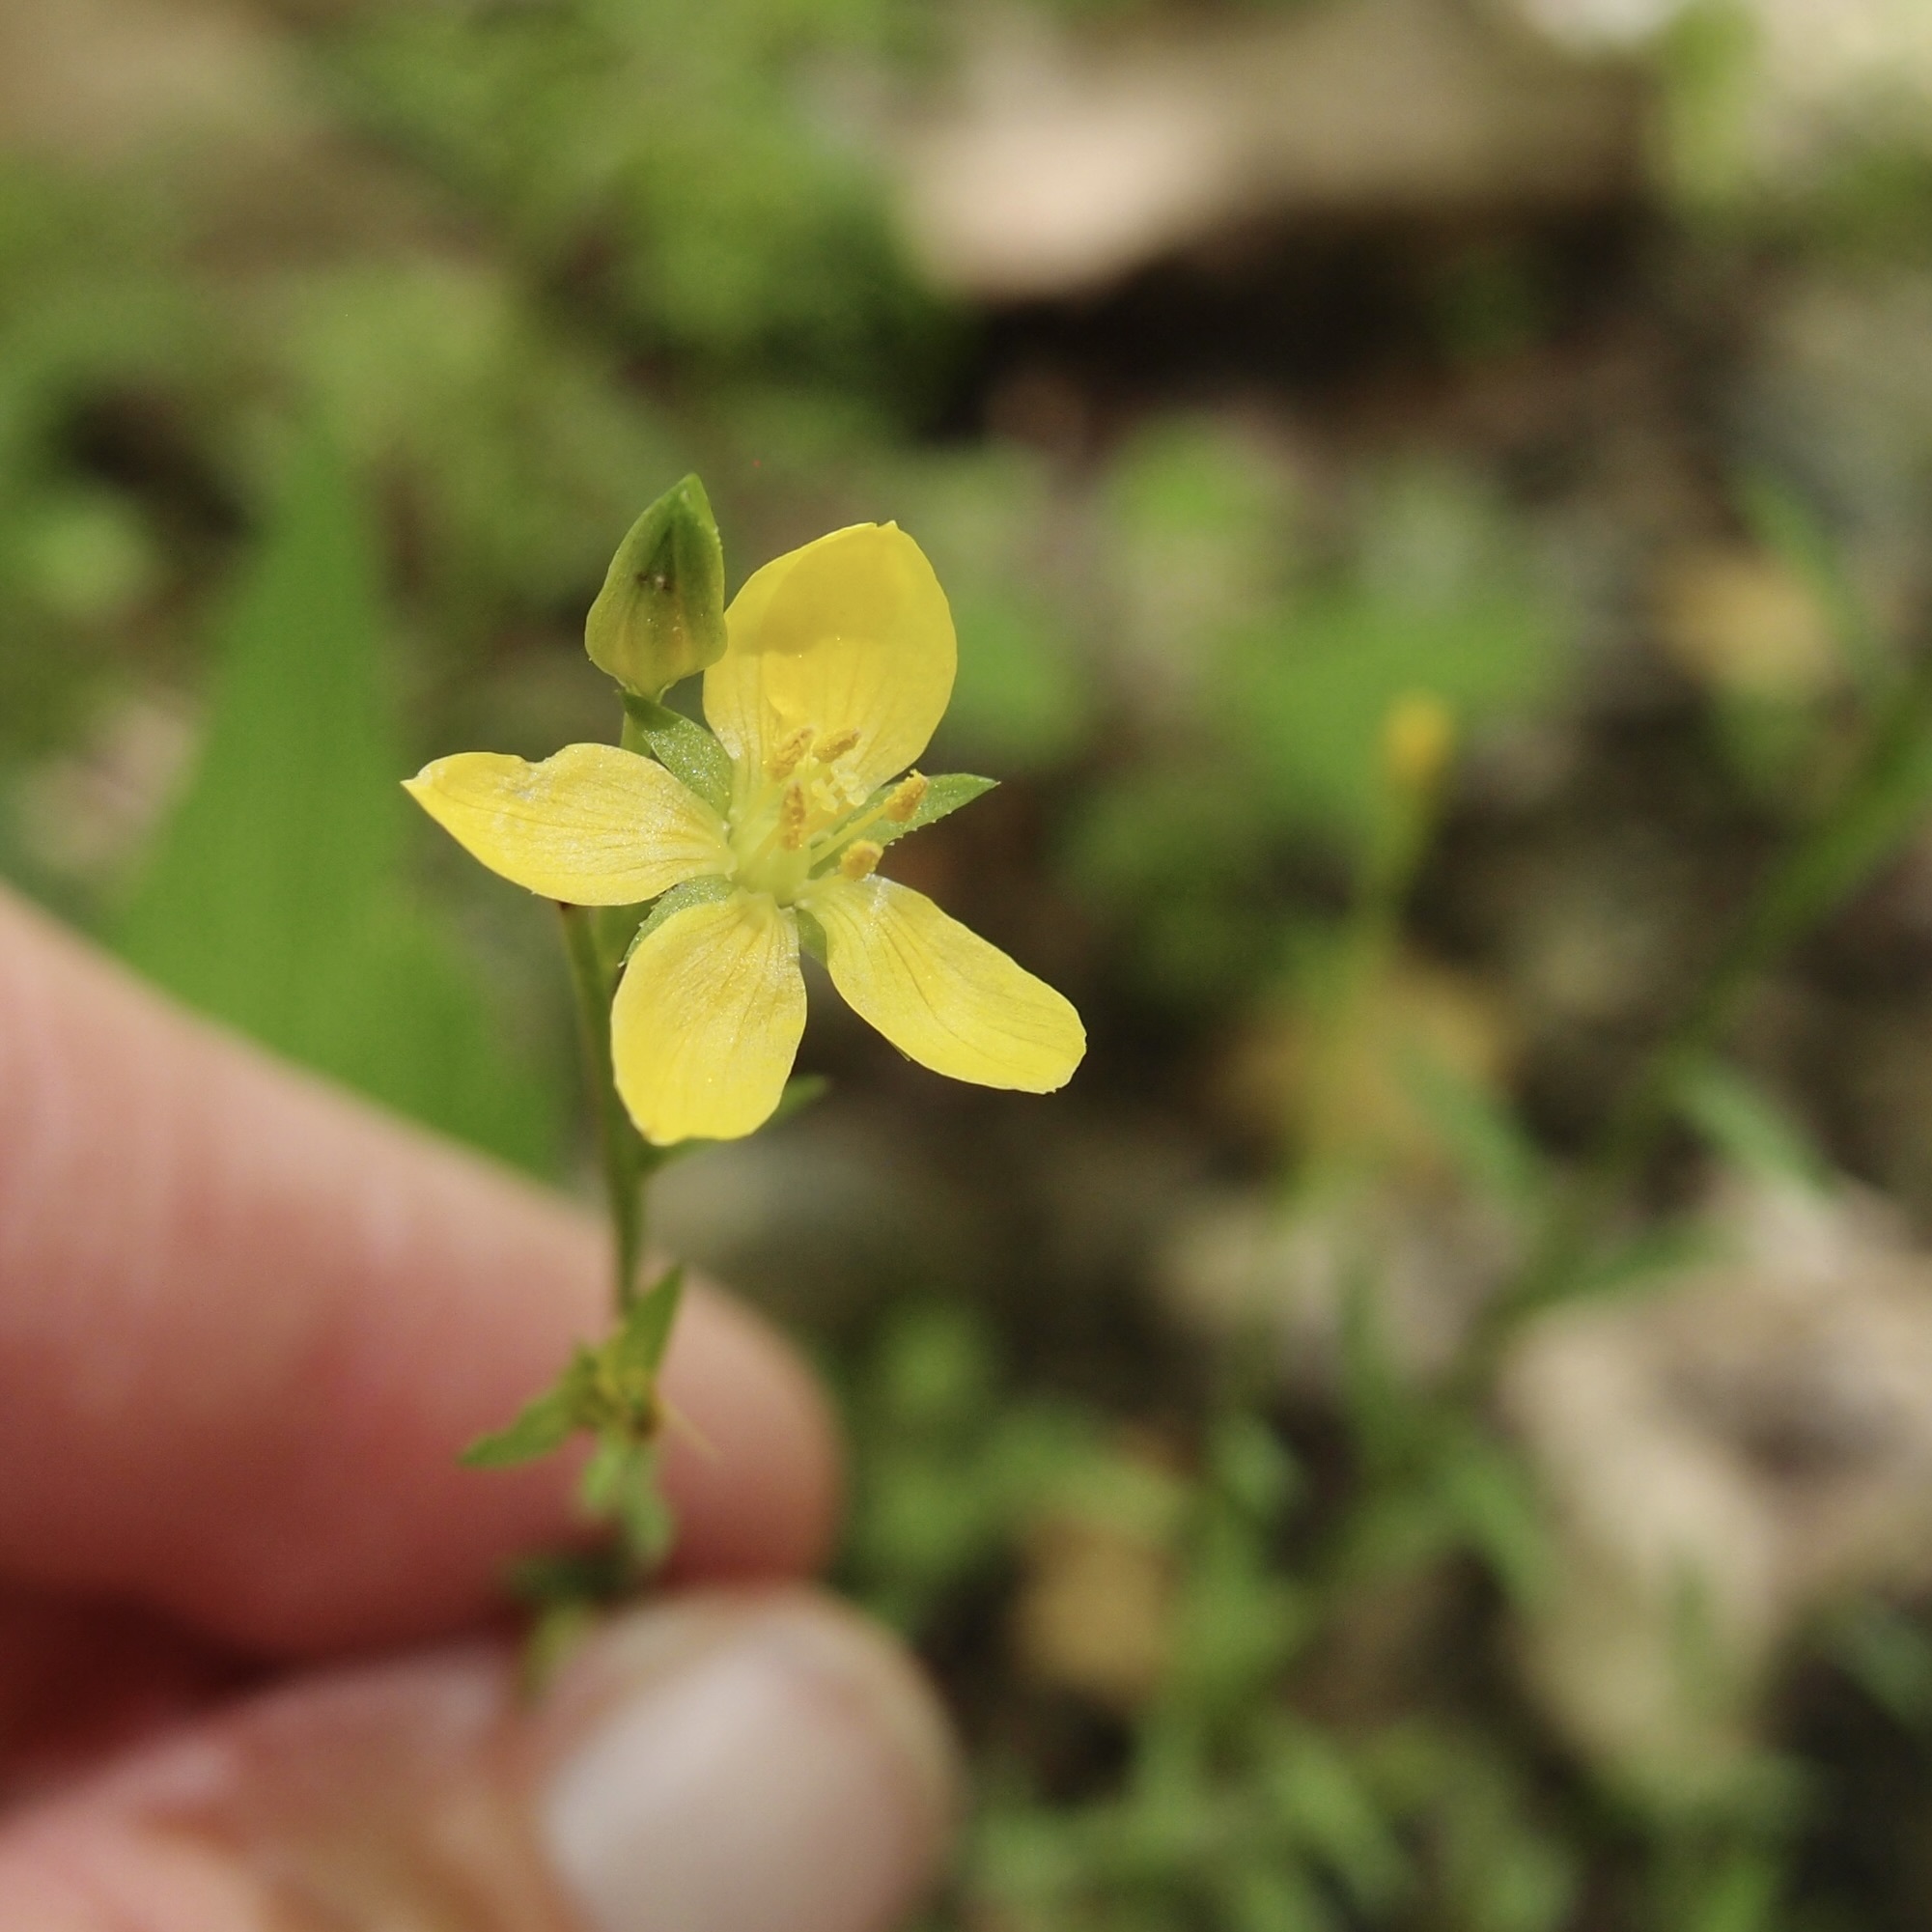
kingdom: Plantae
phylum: Tracheophyta
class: Magnoliopsida
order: Malpighiales
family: Linaceae
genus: Linum
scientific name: Linum neomexicanum
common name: New mexico yellow flax
